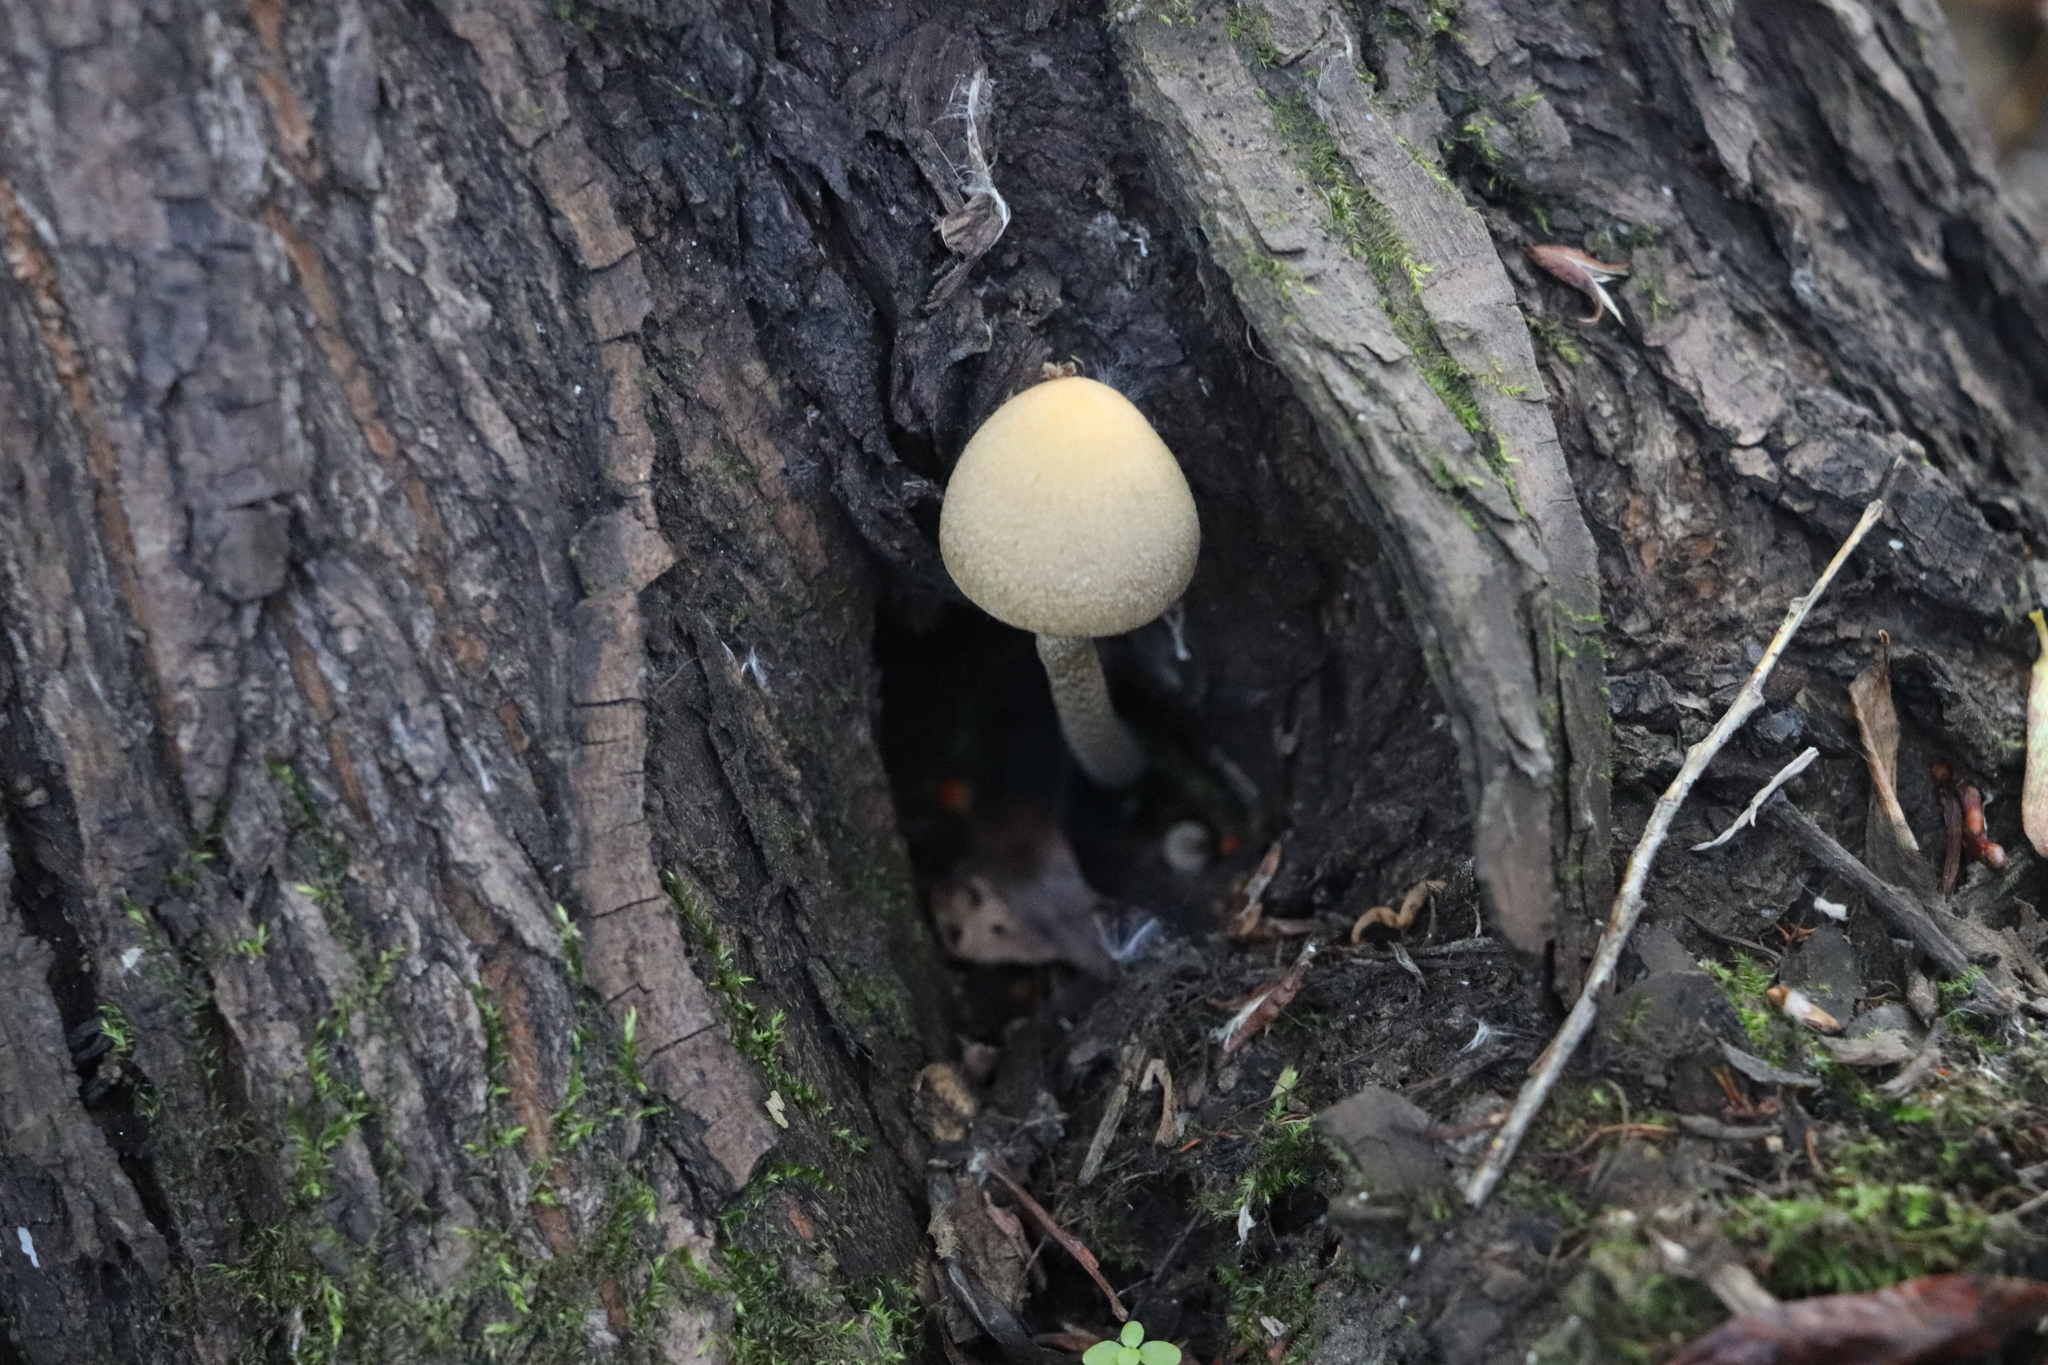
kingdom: Fungi
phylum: Basidiomycota
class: Agaricomycetes
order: Agaricales
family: Psathyrellaceae
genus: Lacrymaria
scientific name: Lacrymaria lacrymabunda
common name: Weeping widow
